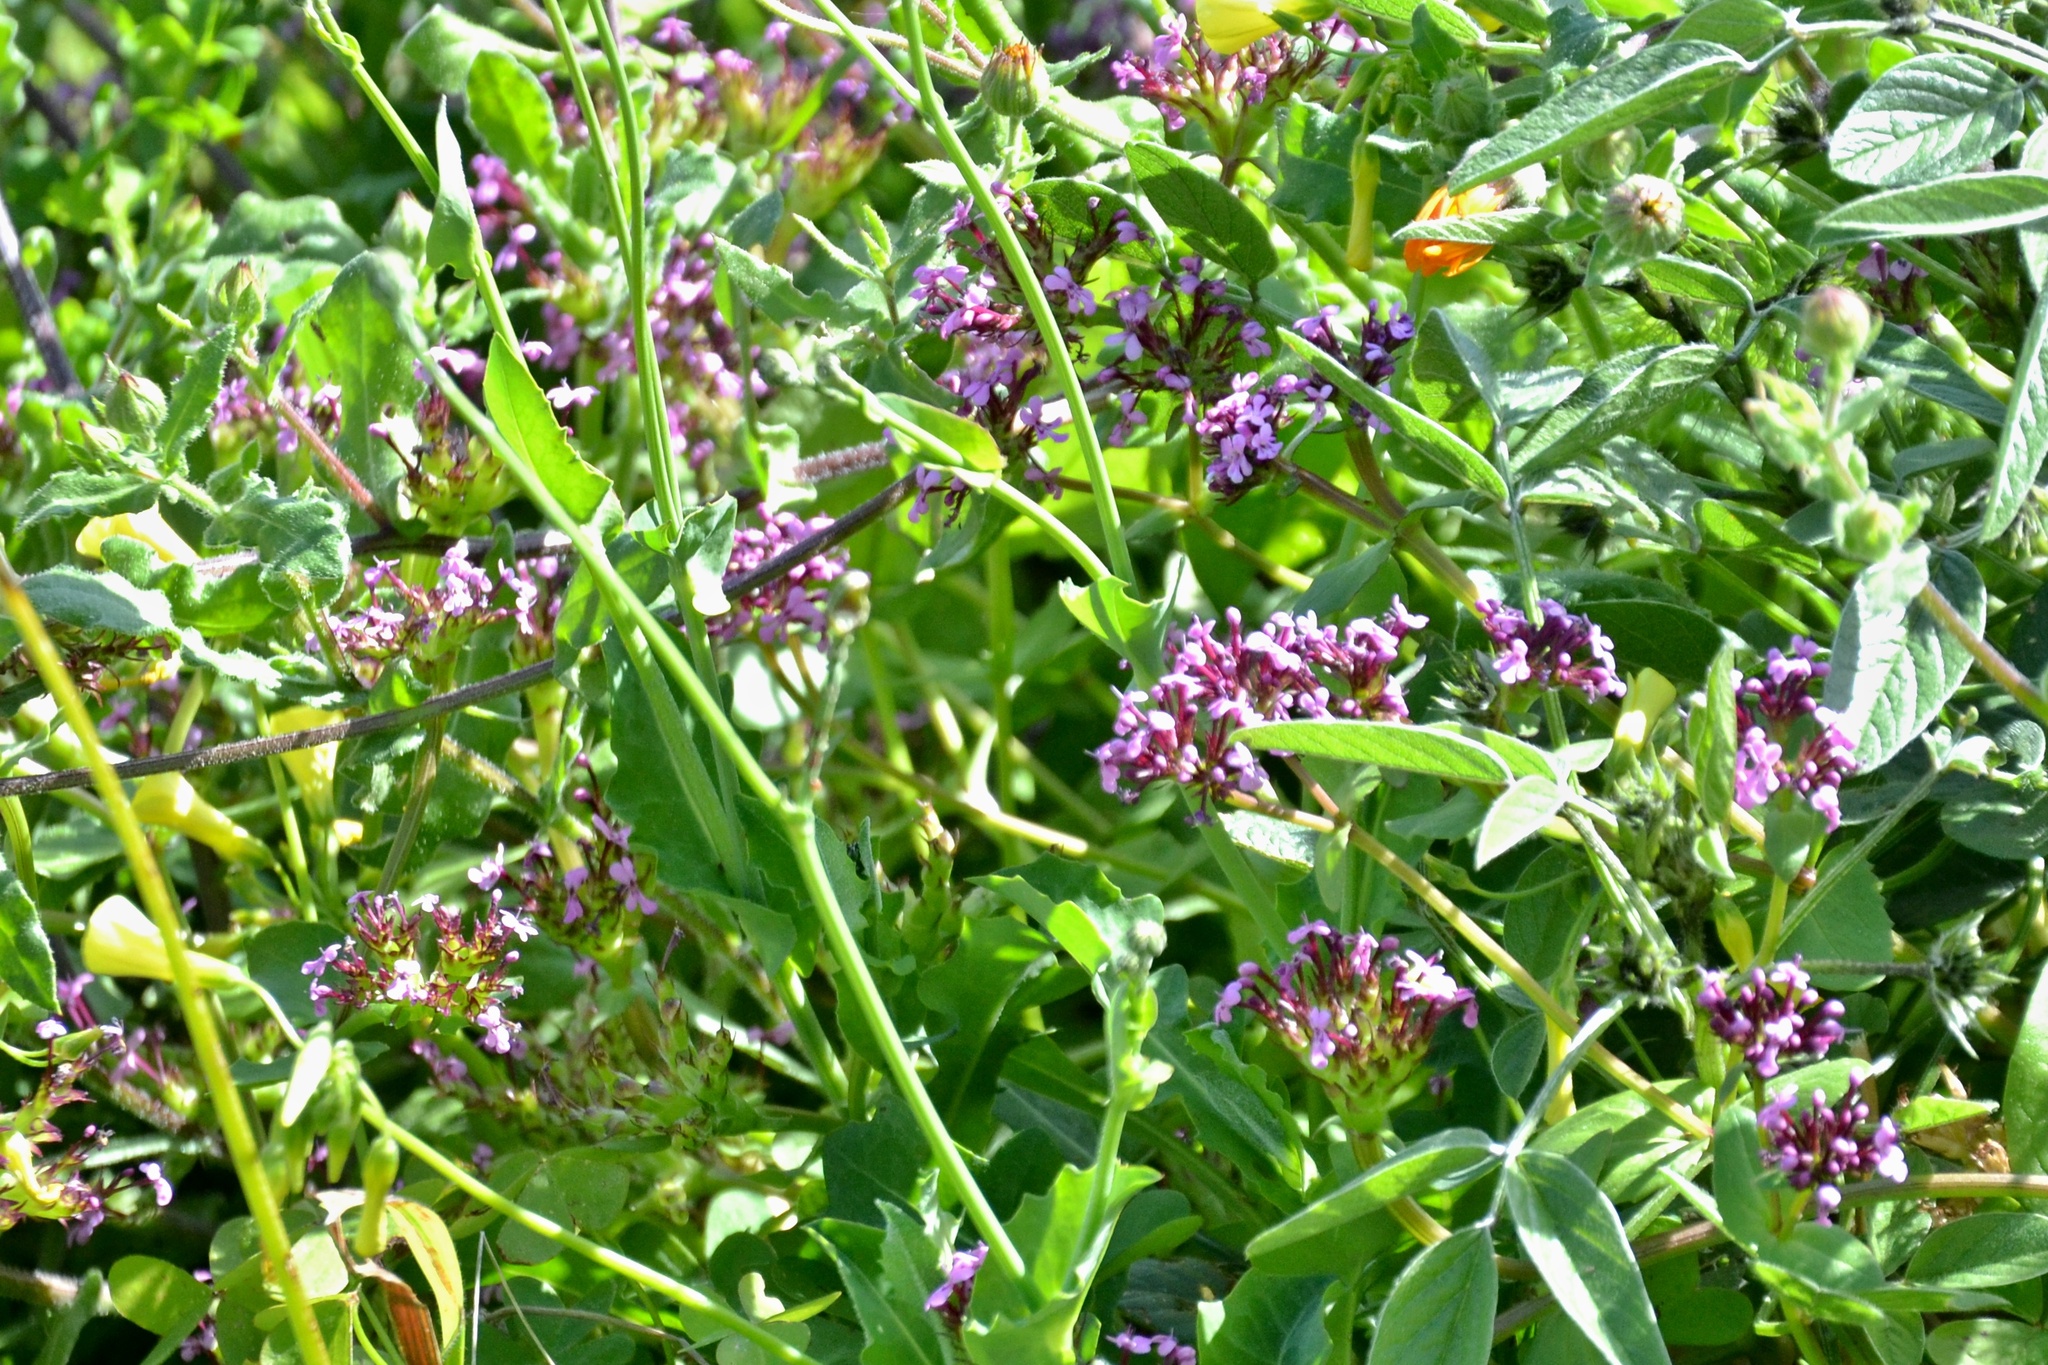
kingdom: Plantae
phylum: Tracheophyta
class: Magnoliopsida
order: Dipsacales
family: Caprifoliaceae
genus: Fedia
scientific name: Fedia graciliflora
